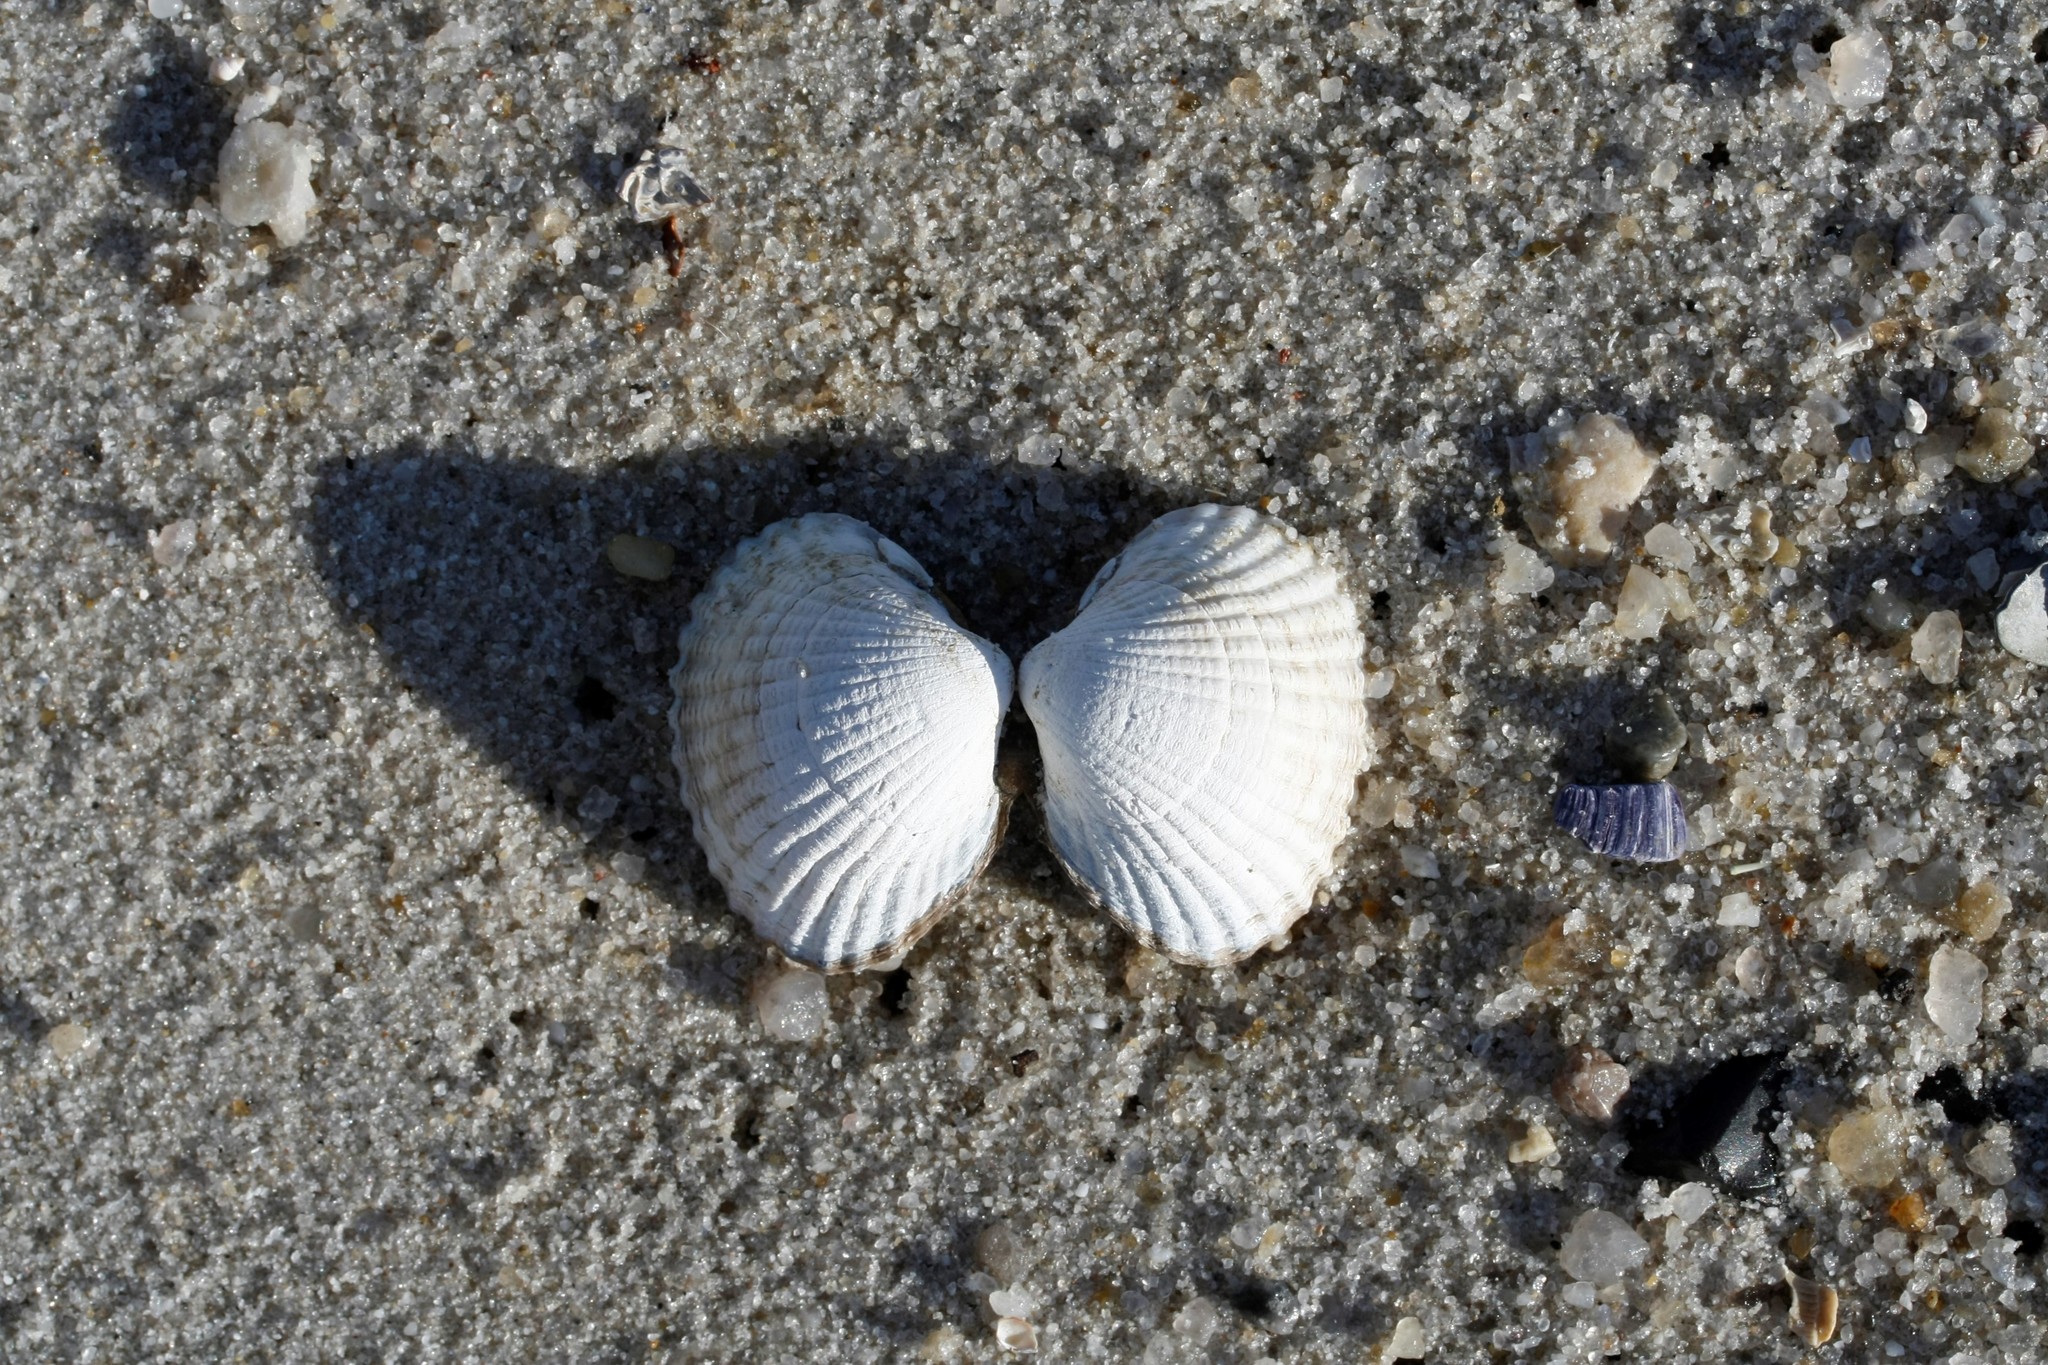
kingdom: Animalia
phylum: Mollusca
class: Bivalvia
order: Cardiida
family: Cardiidae
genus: Cerastoderma
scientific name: Cerastoderma edule
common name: Common cockle
